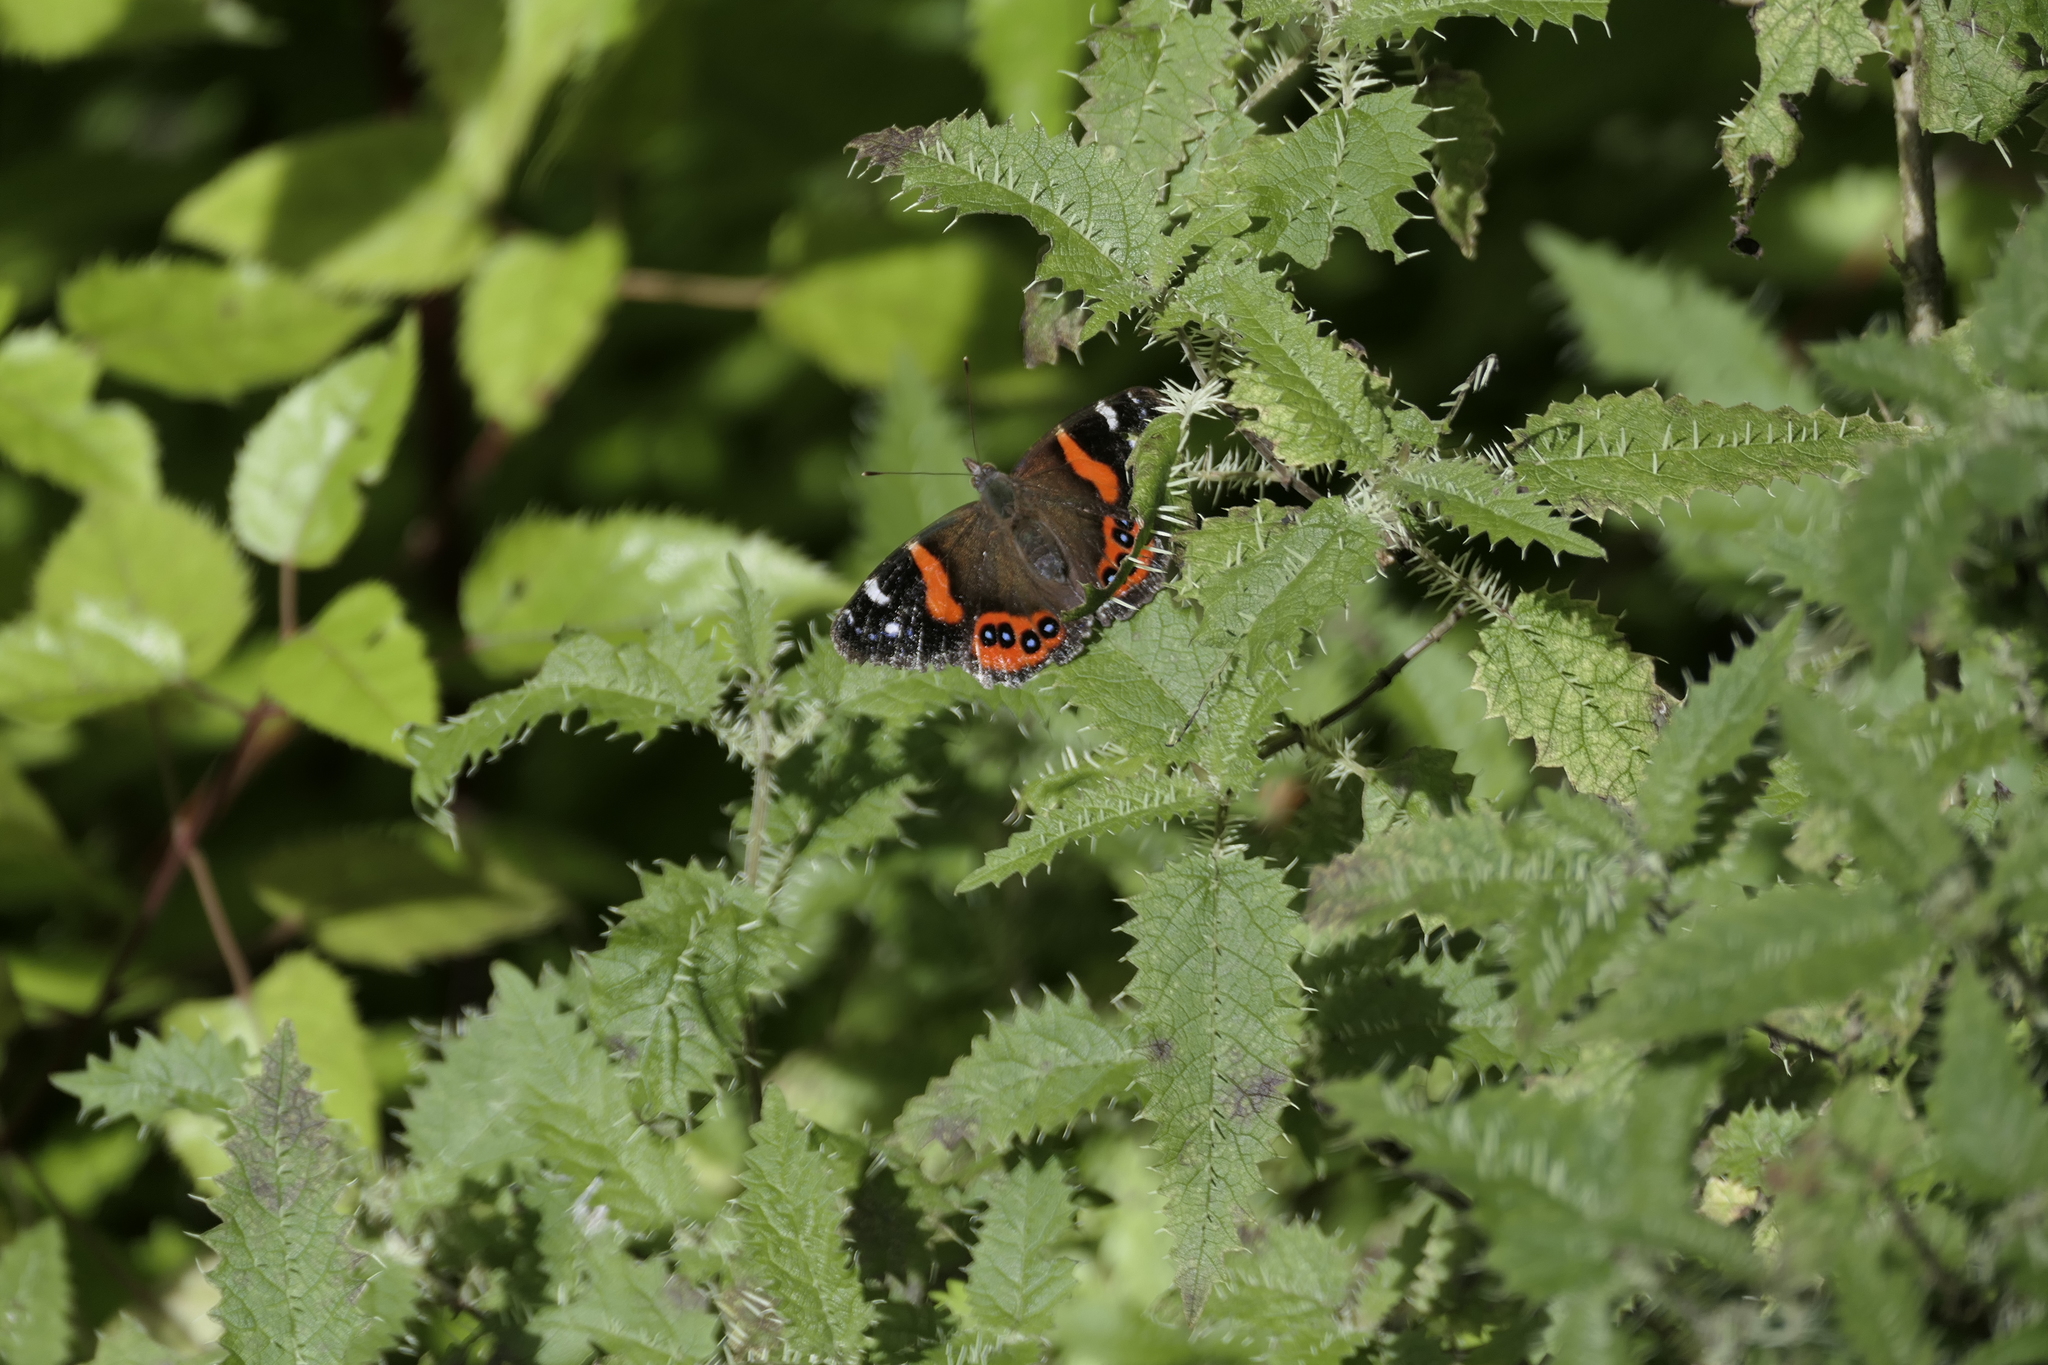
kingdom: Animalia
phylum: Arthropoda
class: Insecta
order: Lepidoptera
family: Nymphalidae
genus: Vanessa
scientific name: Vanessa gonerilla
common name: New zealand red admiral
